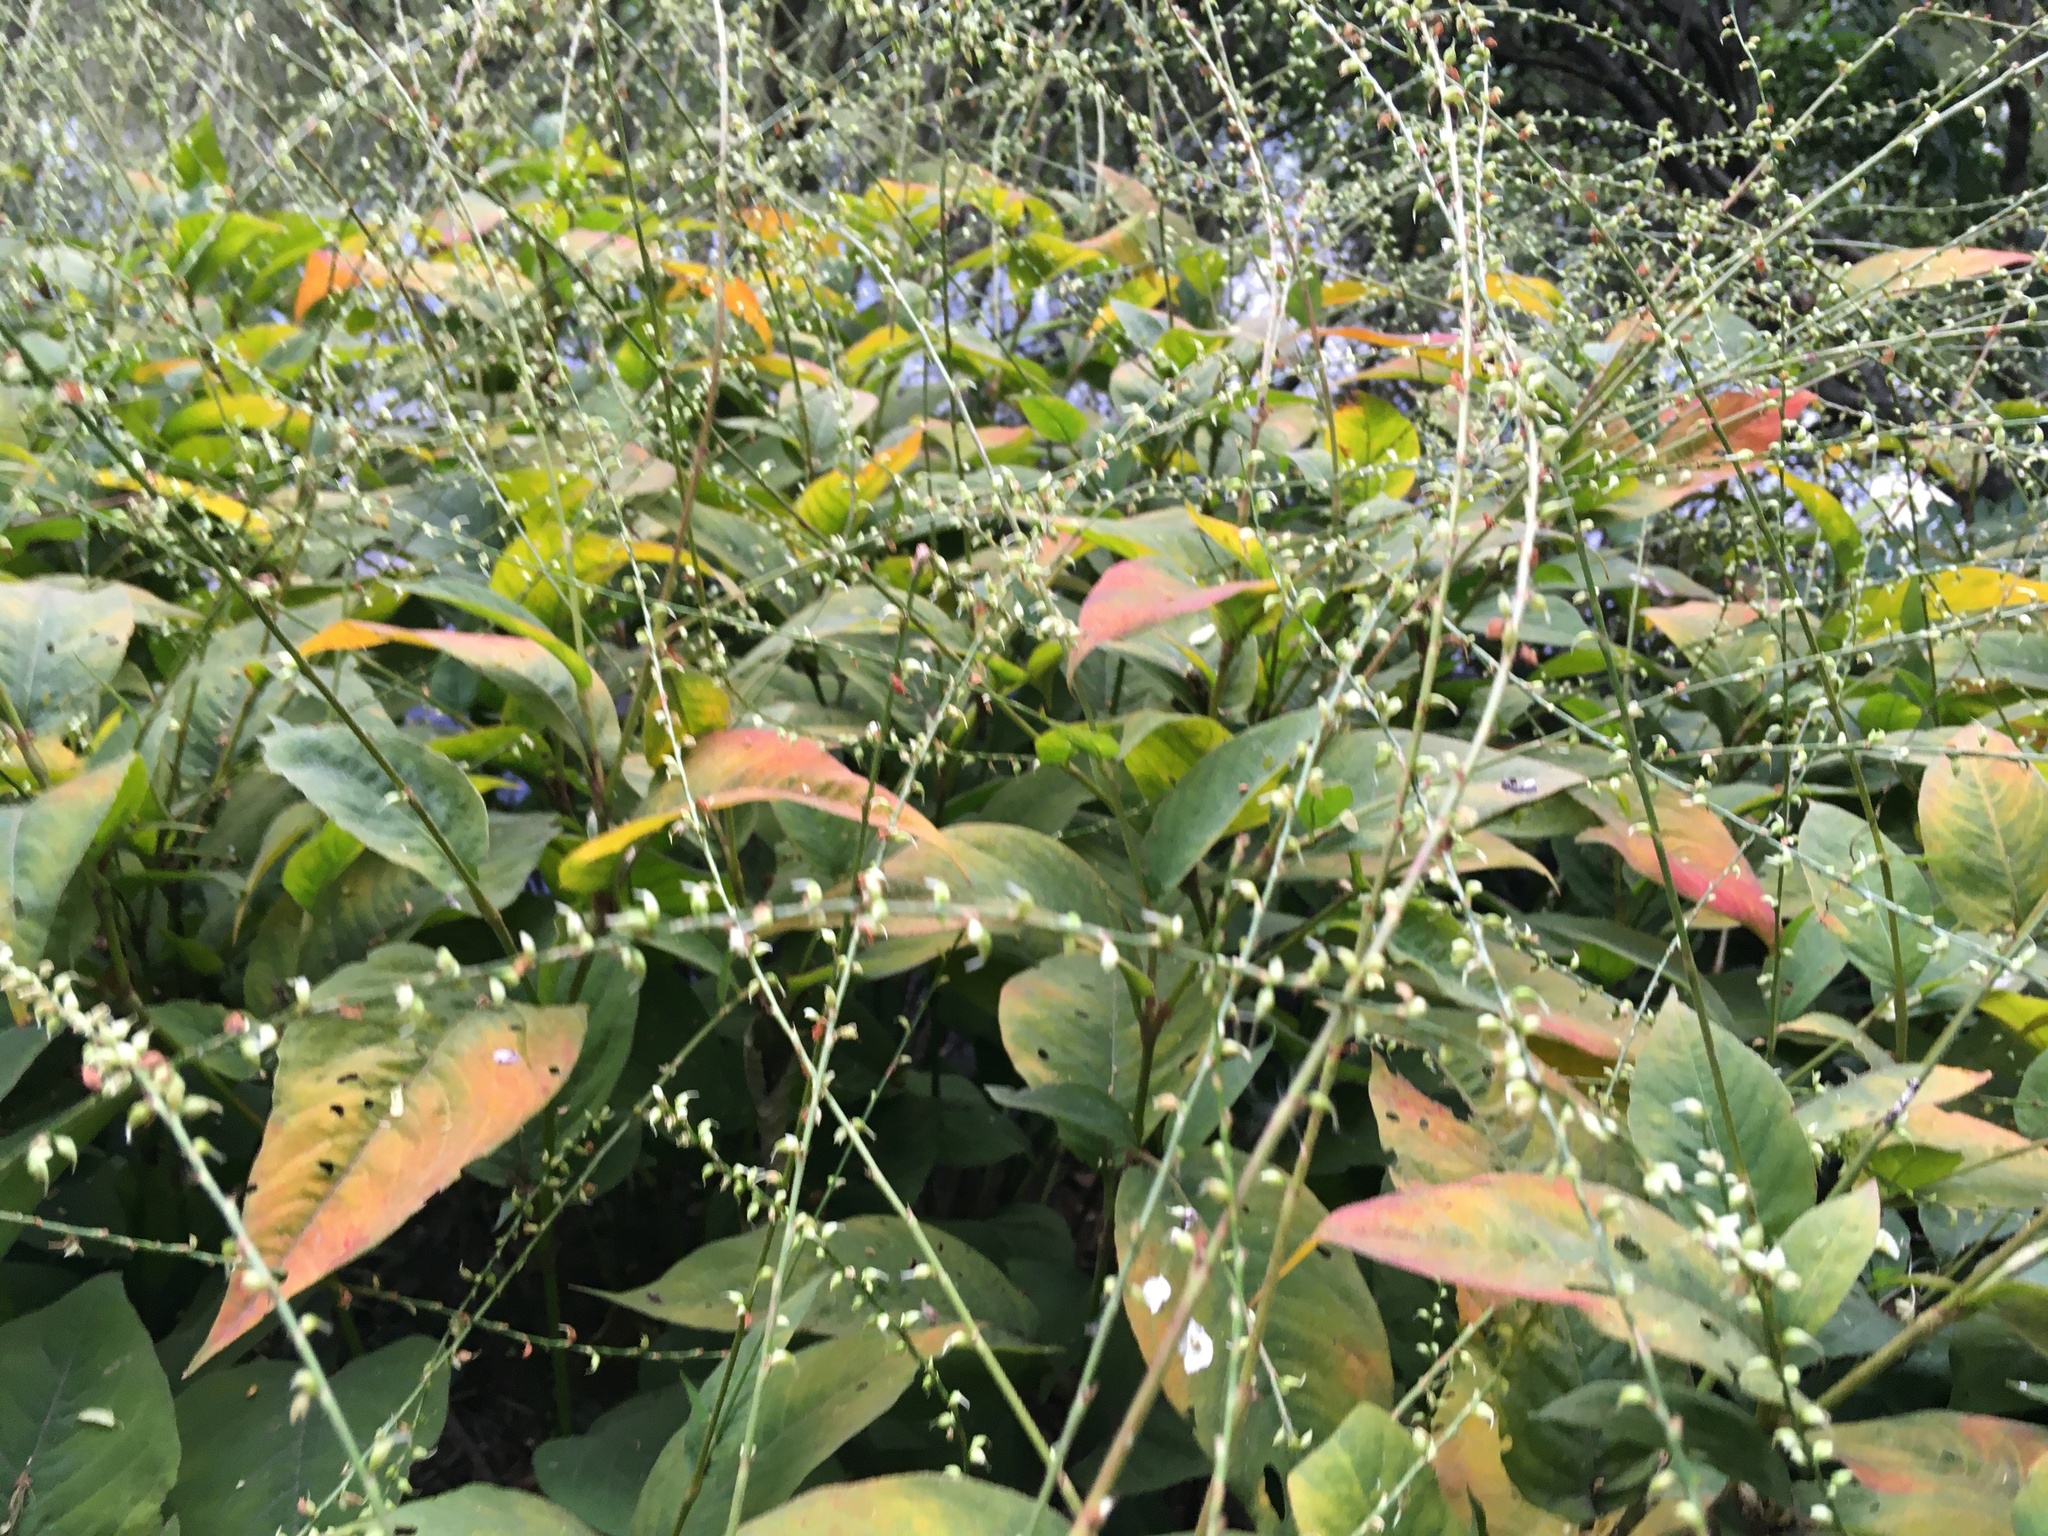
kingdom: Plantae
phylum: Tracheophyta
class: Magnoliopsida
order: Caryophyllales
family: Polygonaceae
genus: Persicaria
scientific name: Persicaria virginiana
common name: Jumpseed
